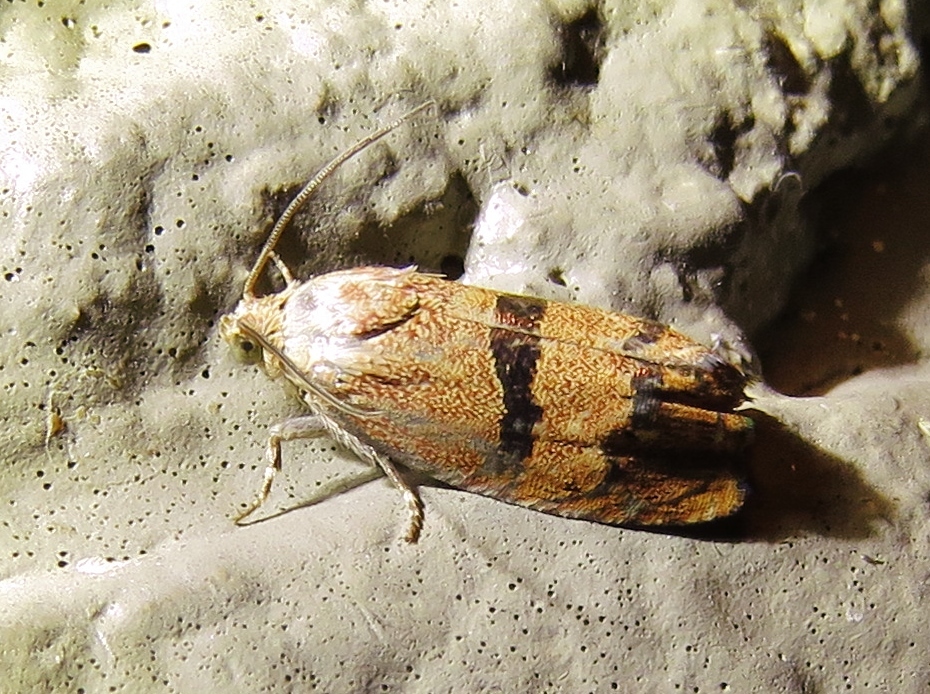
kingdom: Animalia
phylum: Arthropoda
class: Insecta
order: Lepidoptera
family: Tortricidae
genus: Cydia
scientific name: Cydia latiferreana
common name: Filbertworm moth
